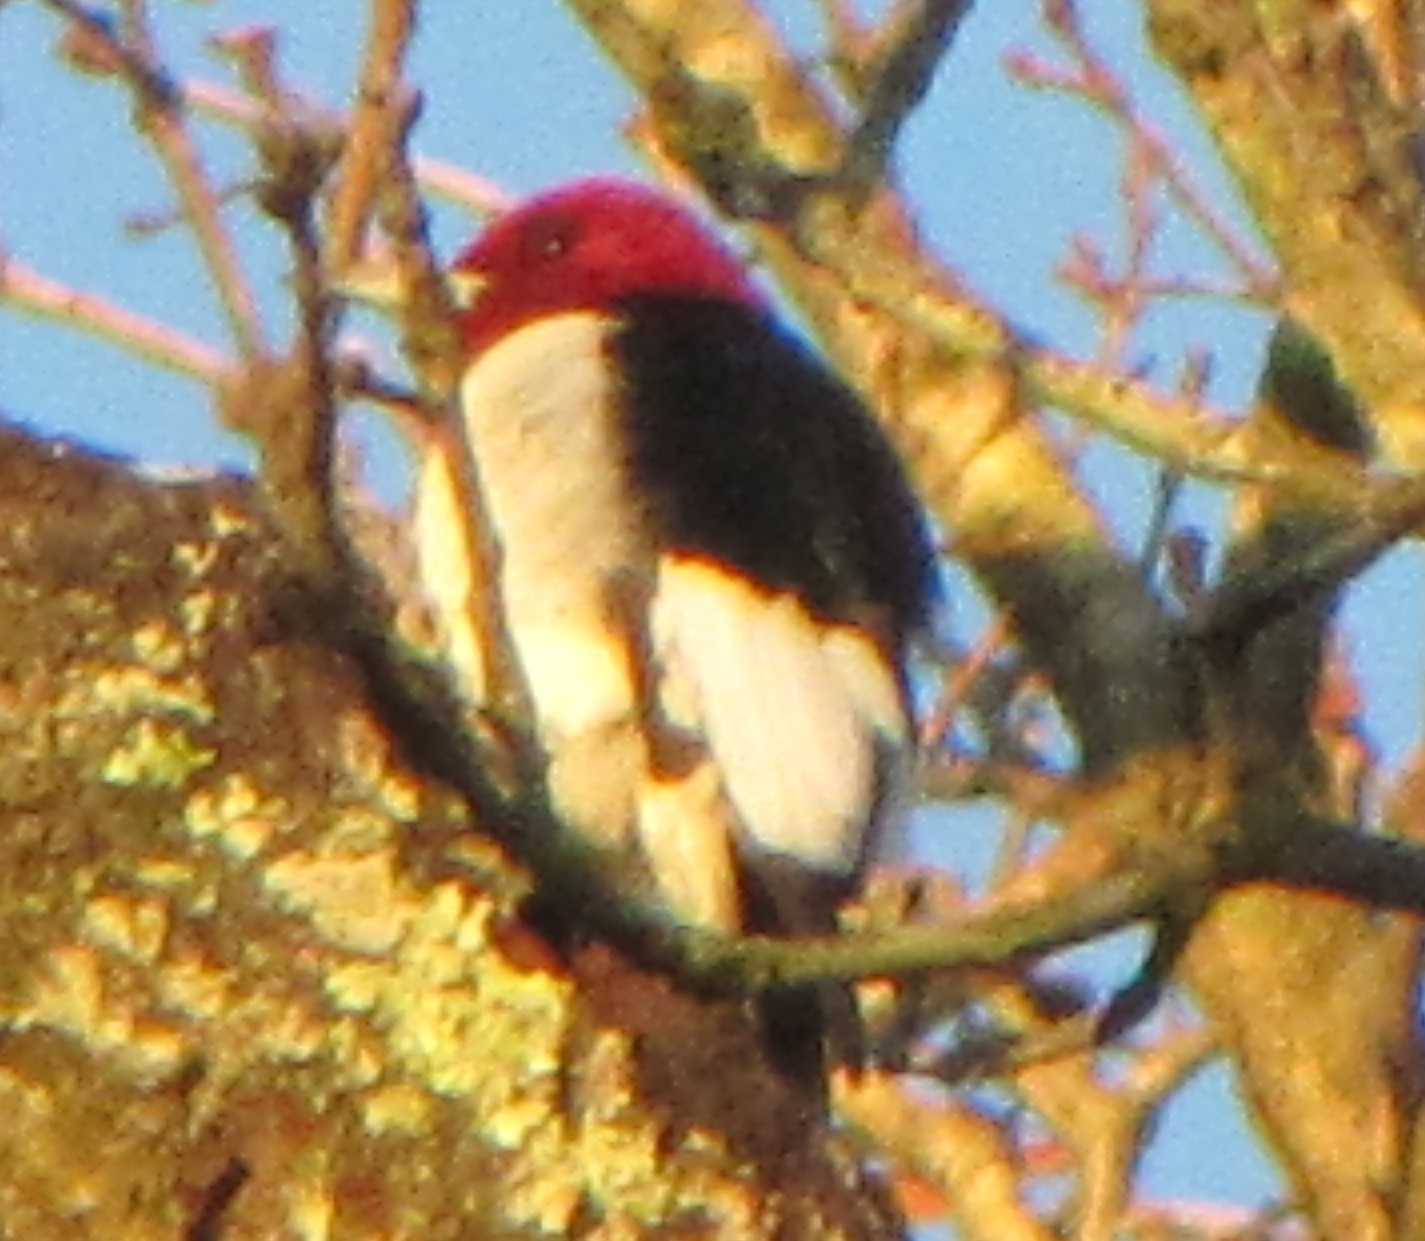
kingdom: Animalia
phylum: Chordata
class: Aves
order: Piciformes
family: Picidae
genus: Melanerpes
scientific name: Melanerpes erythrocephalus
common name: Red-headed woodpecker
